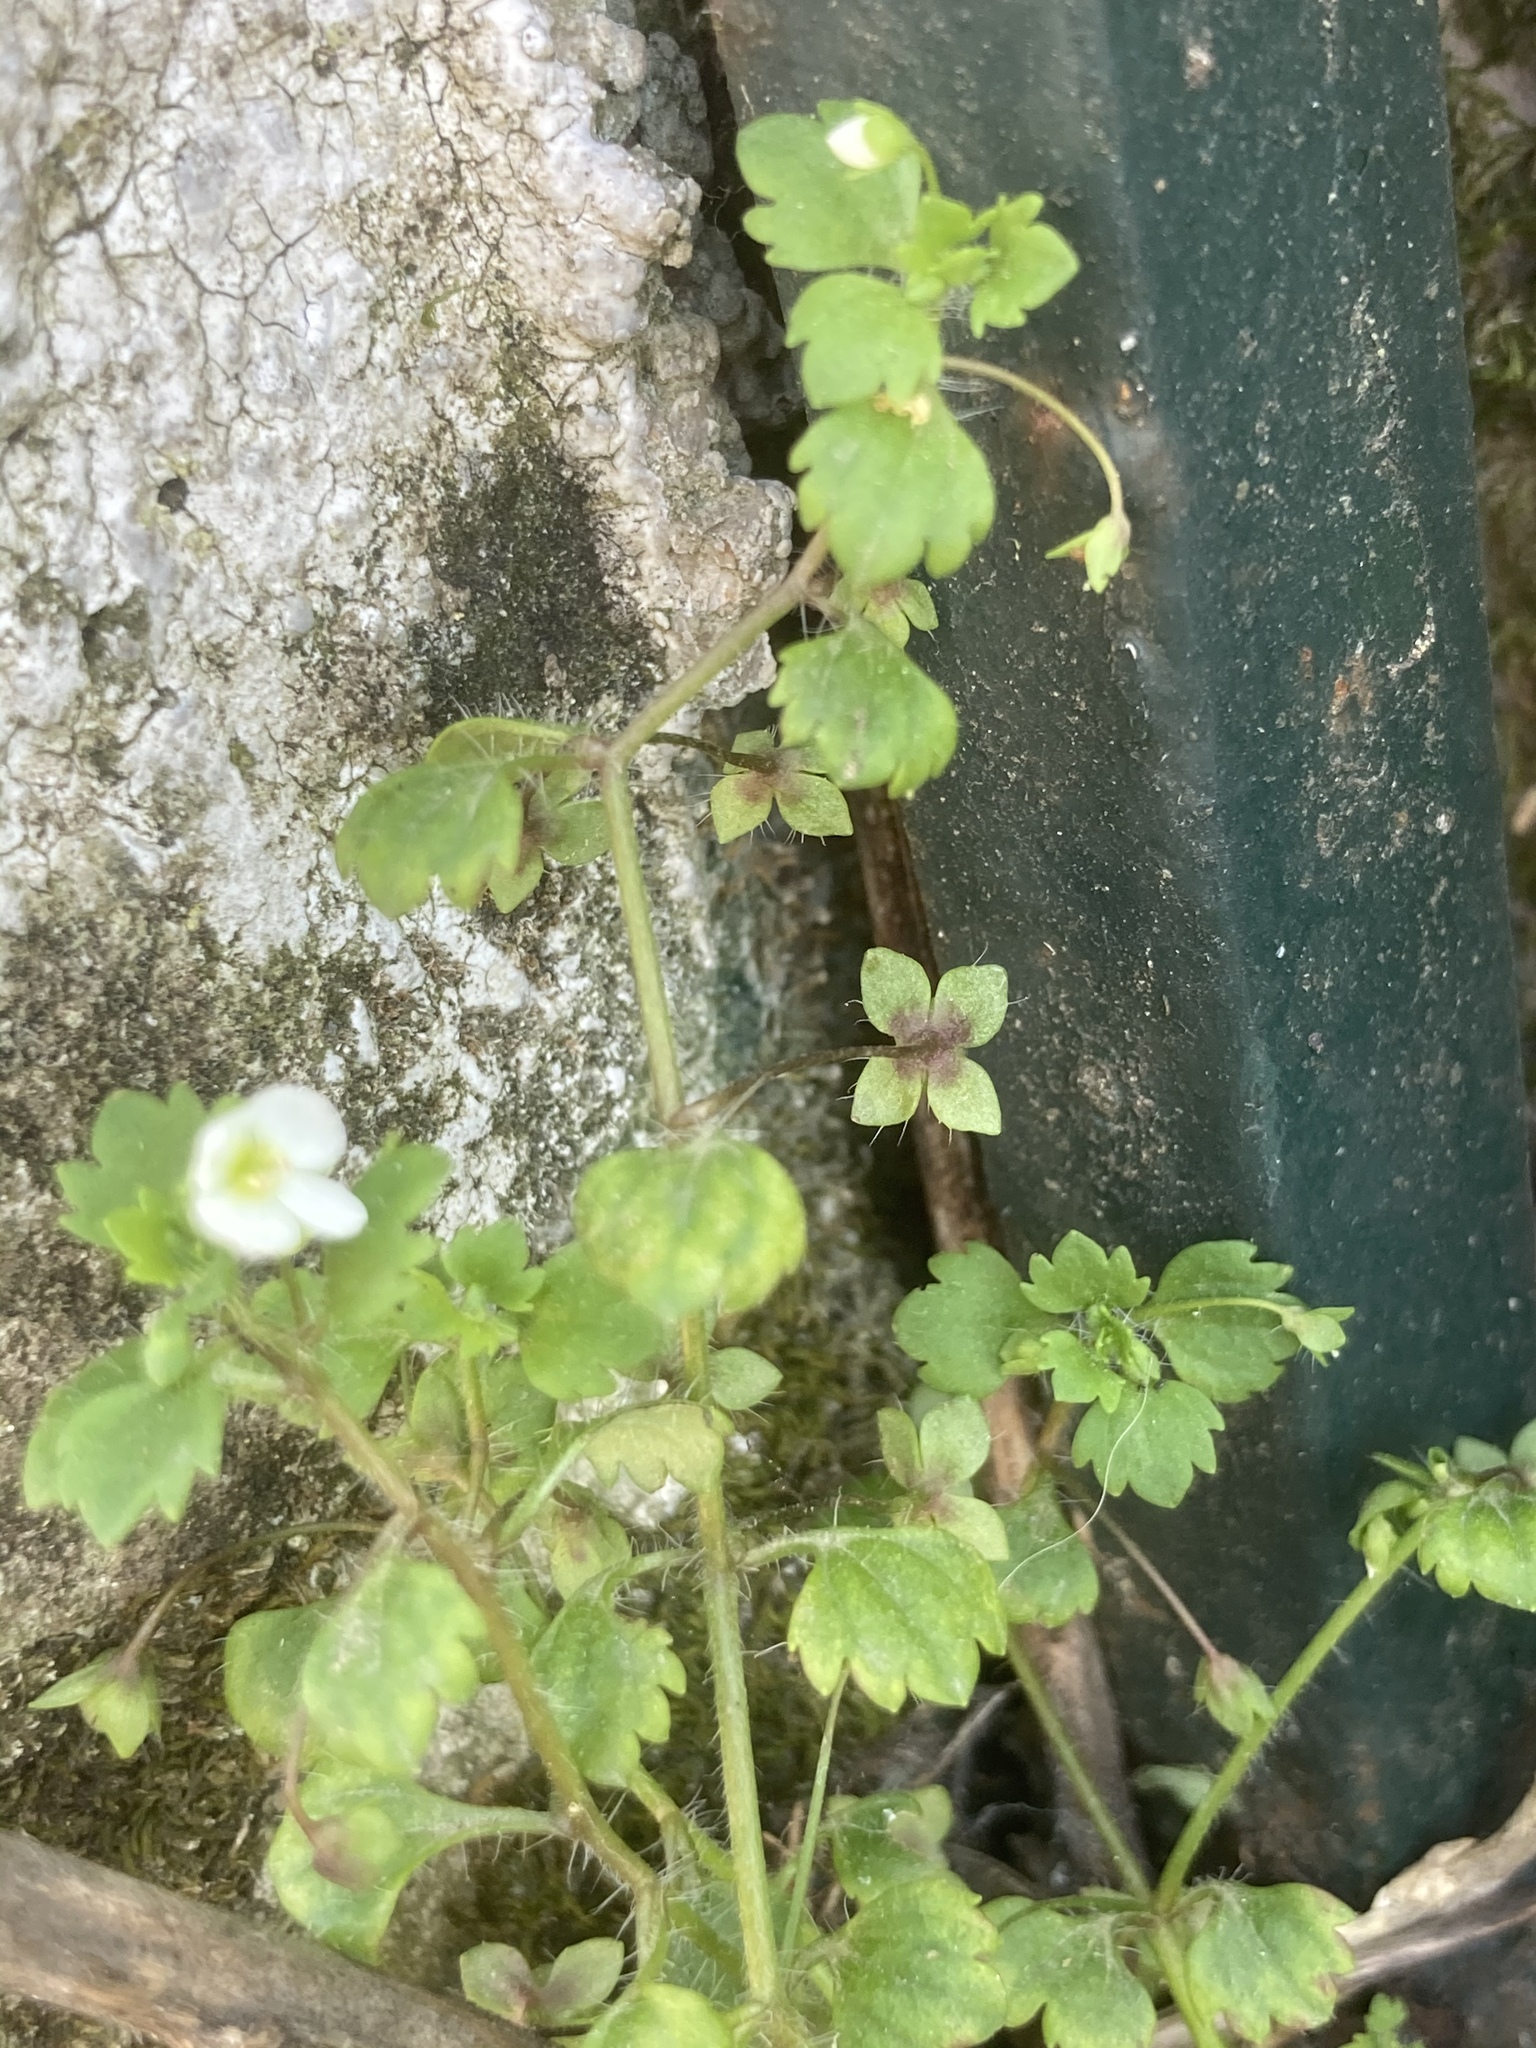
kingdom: Plantae
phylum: Tracheophyta
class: Magnoliopsida
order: Lamiales
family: Plantaginaceae
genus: Veronica
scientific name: Veronica cymbalaria
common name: Pale speedwell
